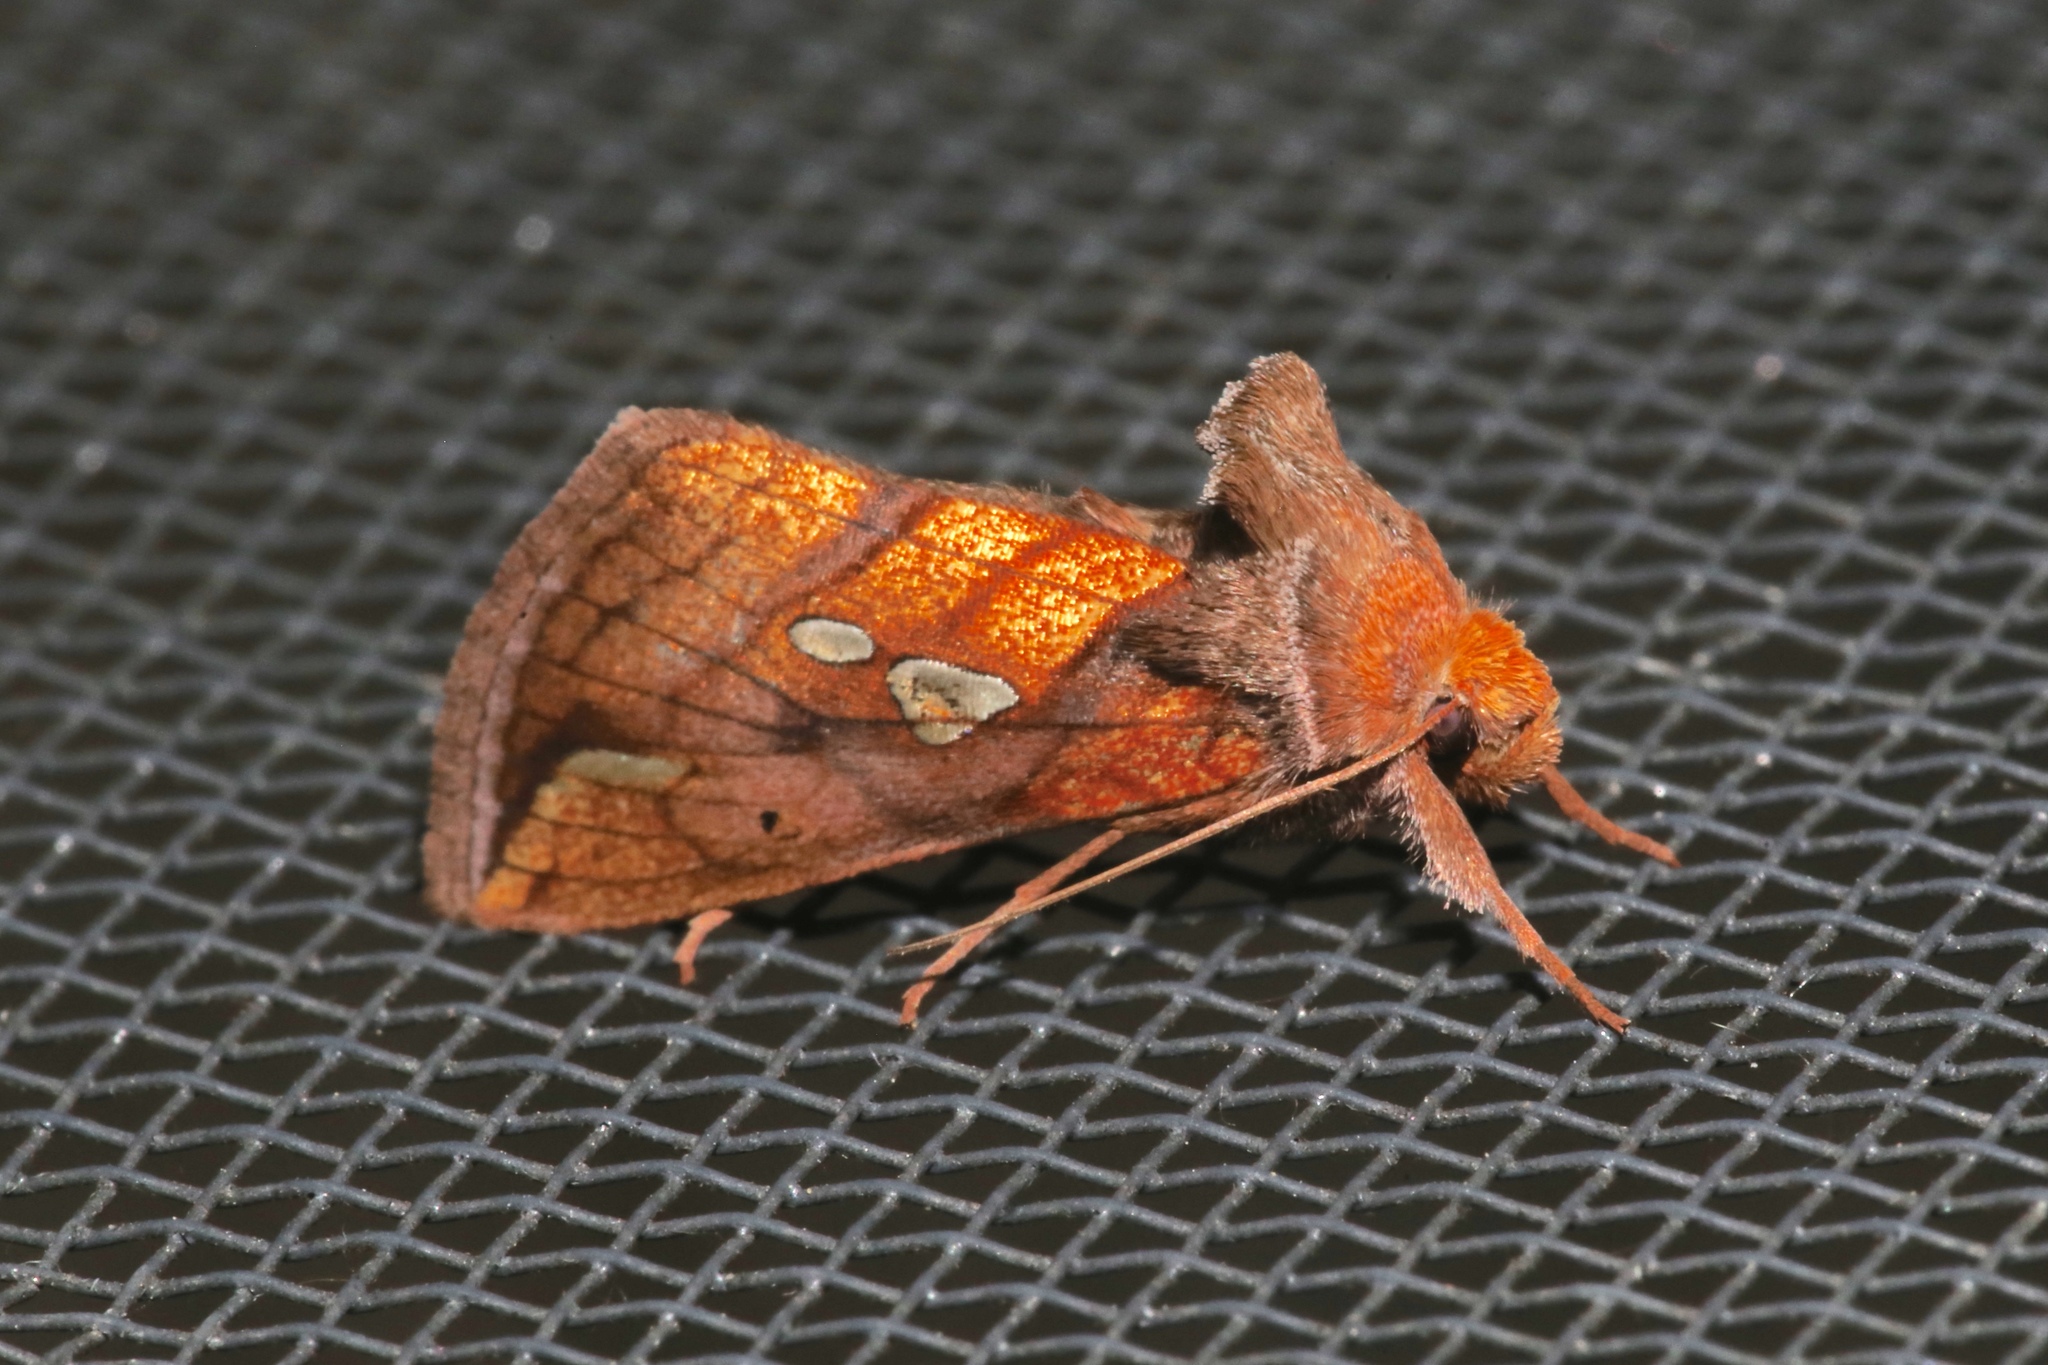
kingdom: Animalia
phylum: Arthropoda
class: Insecta
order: Lepidoptera
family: Noctuidae
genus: Plusia
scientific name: Plusia putnami
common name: Lempke's gold spot
